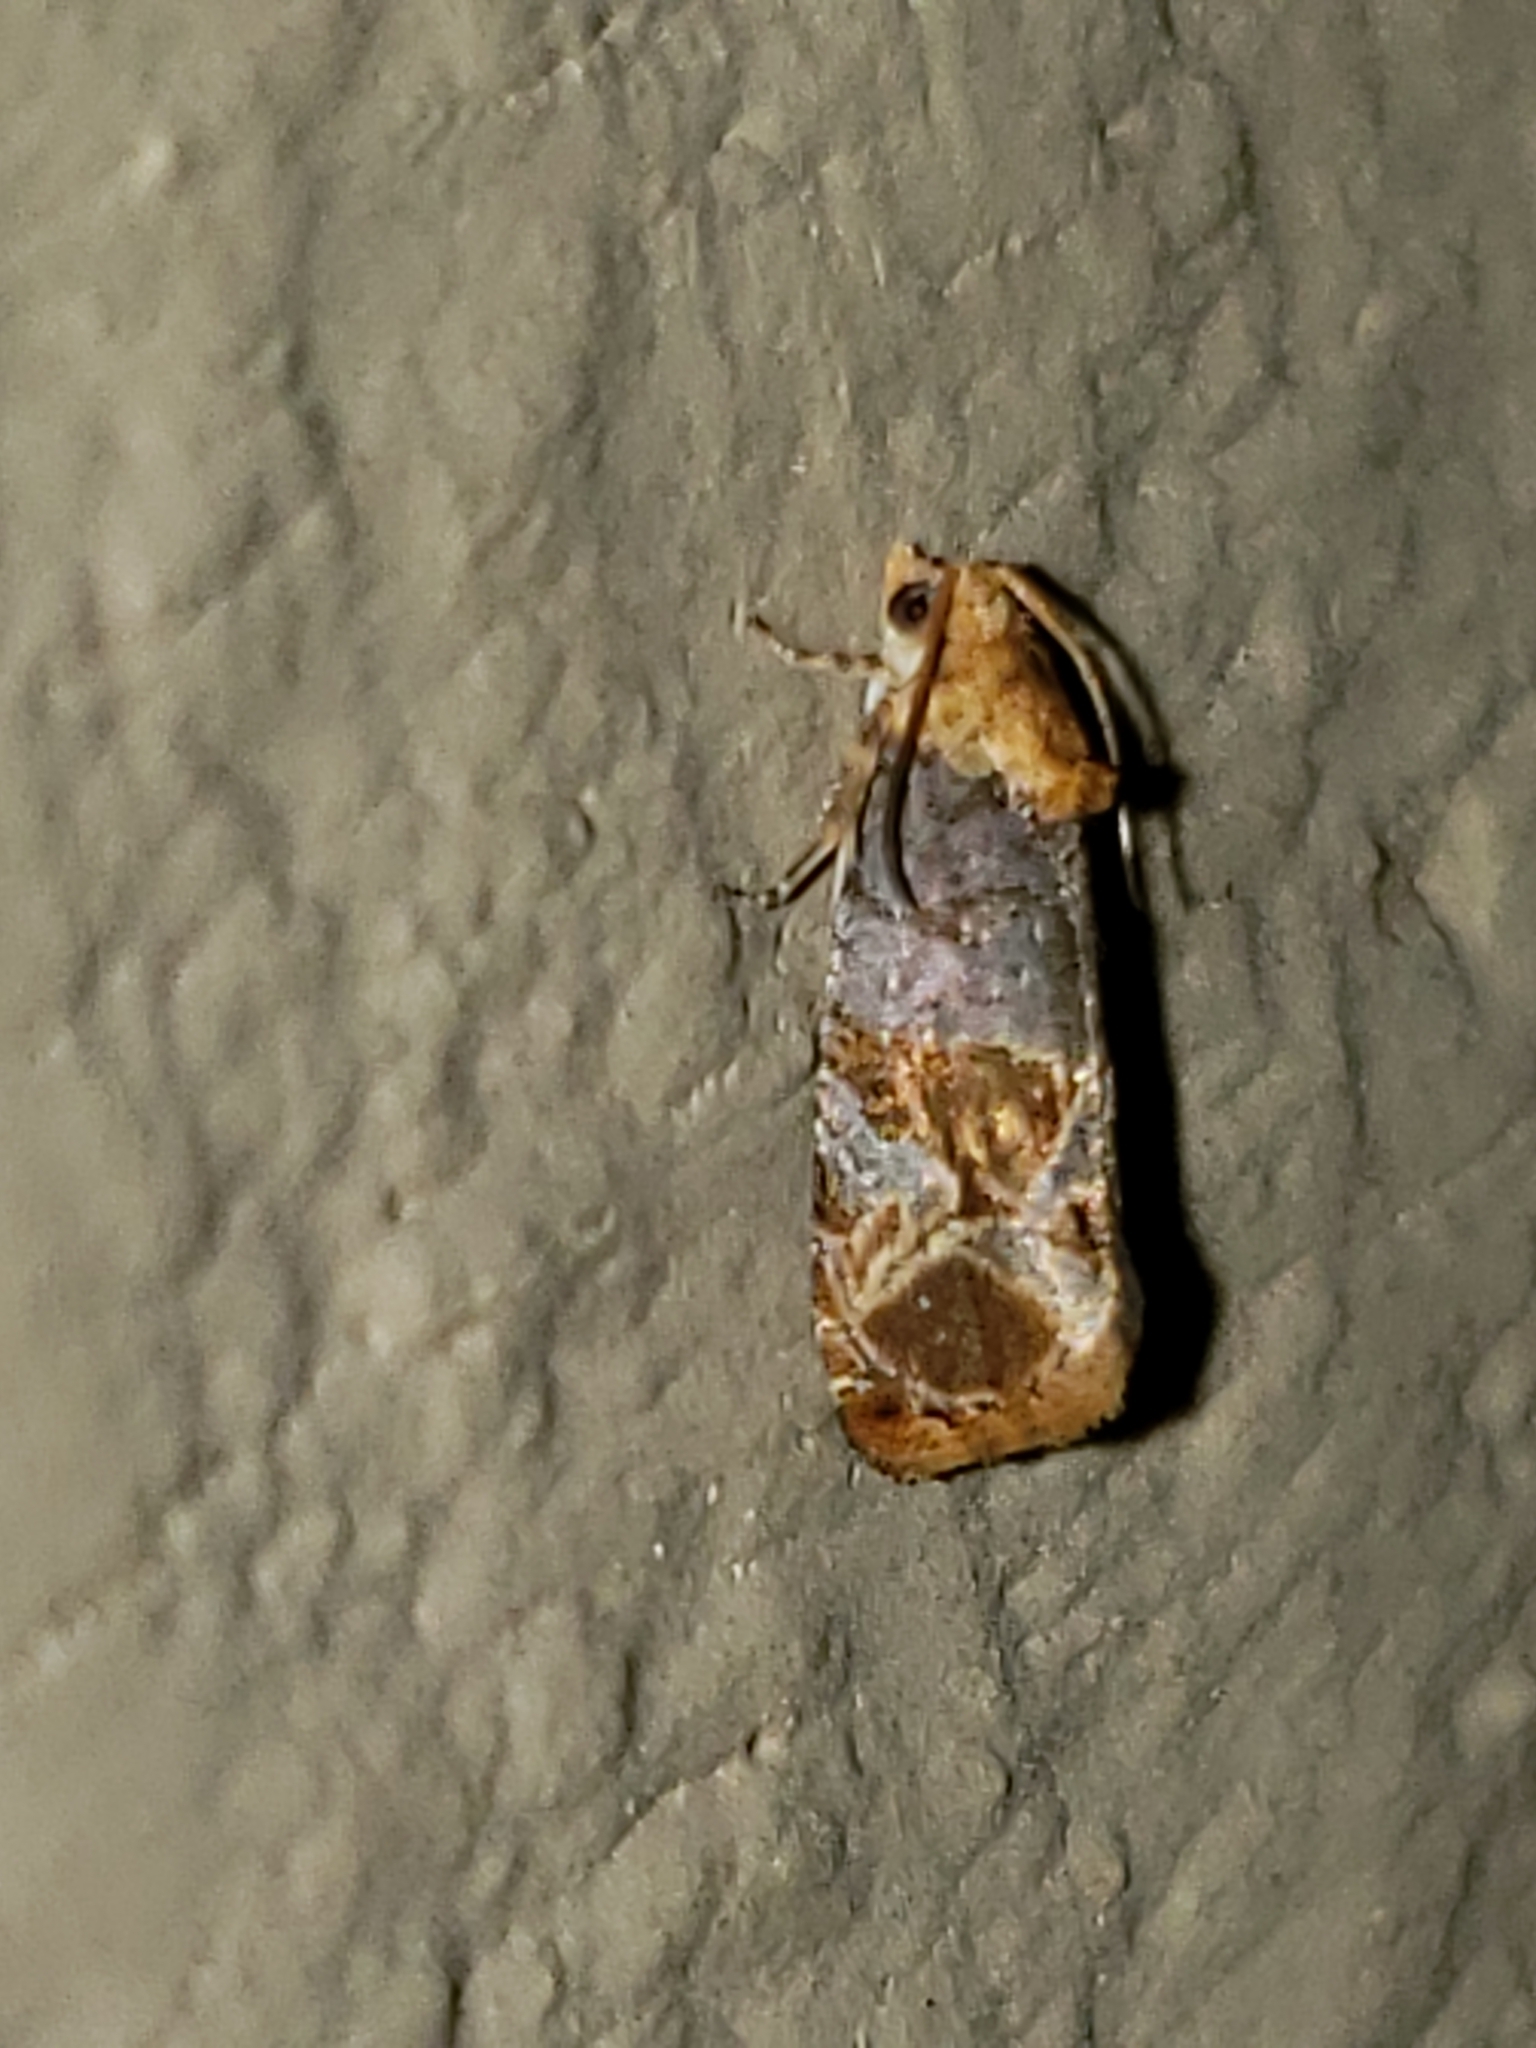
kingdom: Animalia
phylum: Arthropoda
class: Insecta
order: Lepidoptera
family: Tortricidae
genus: Paralobesia
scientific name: Paralobesia viteana
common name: Grape berry moth
